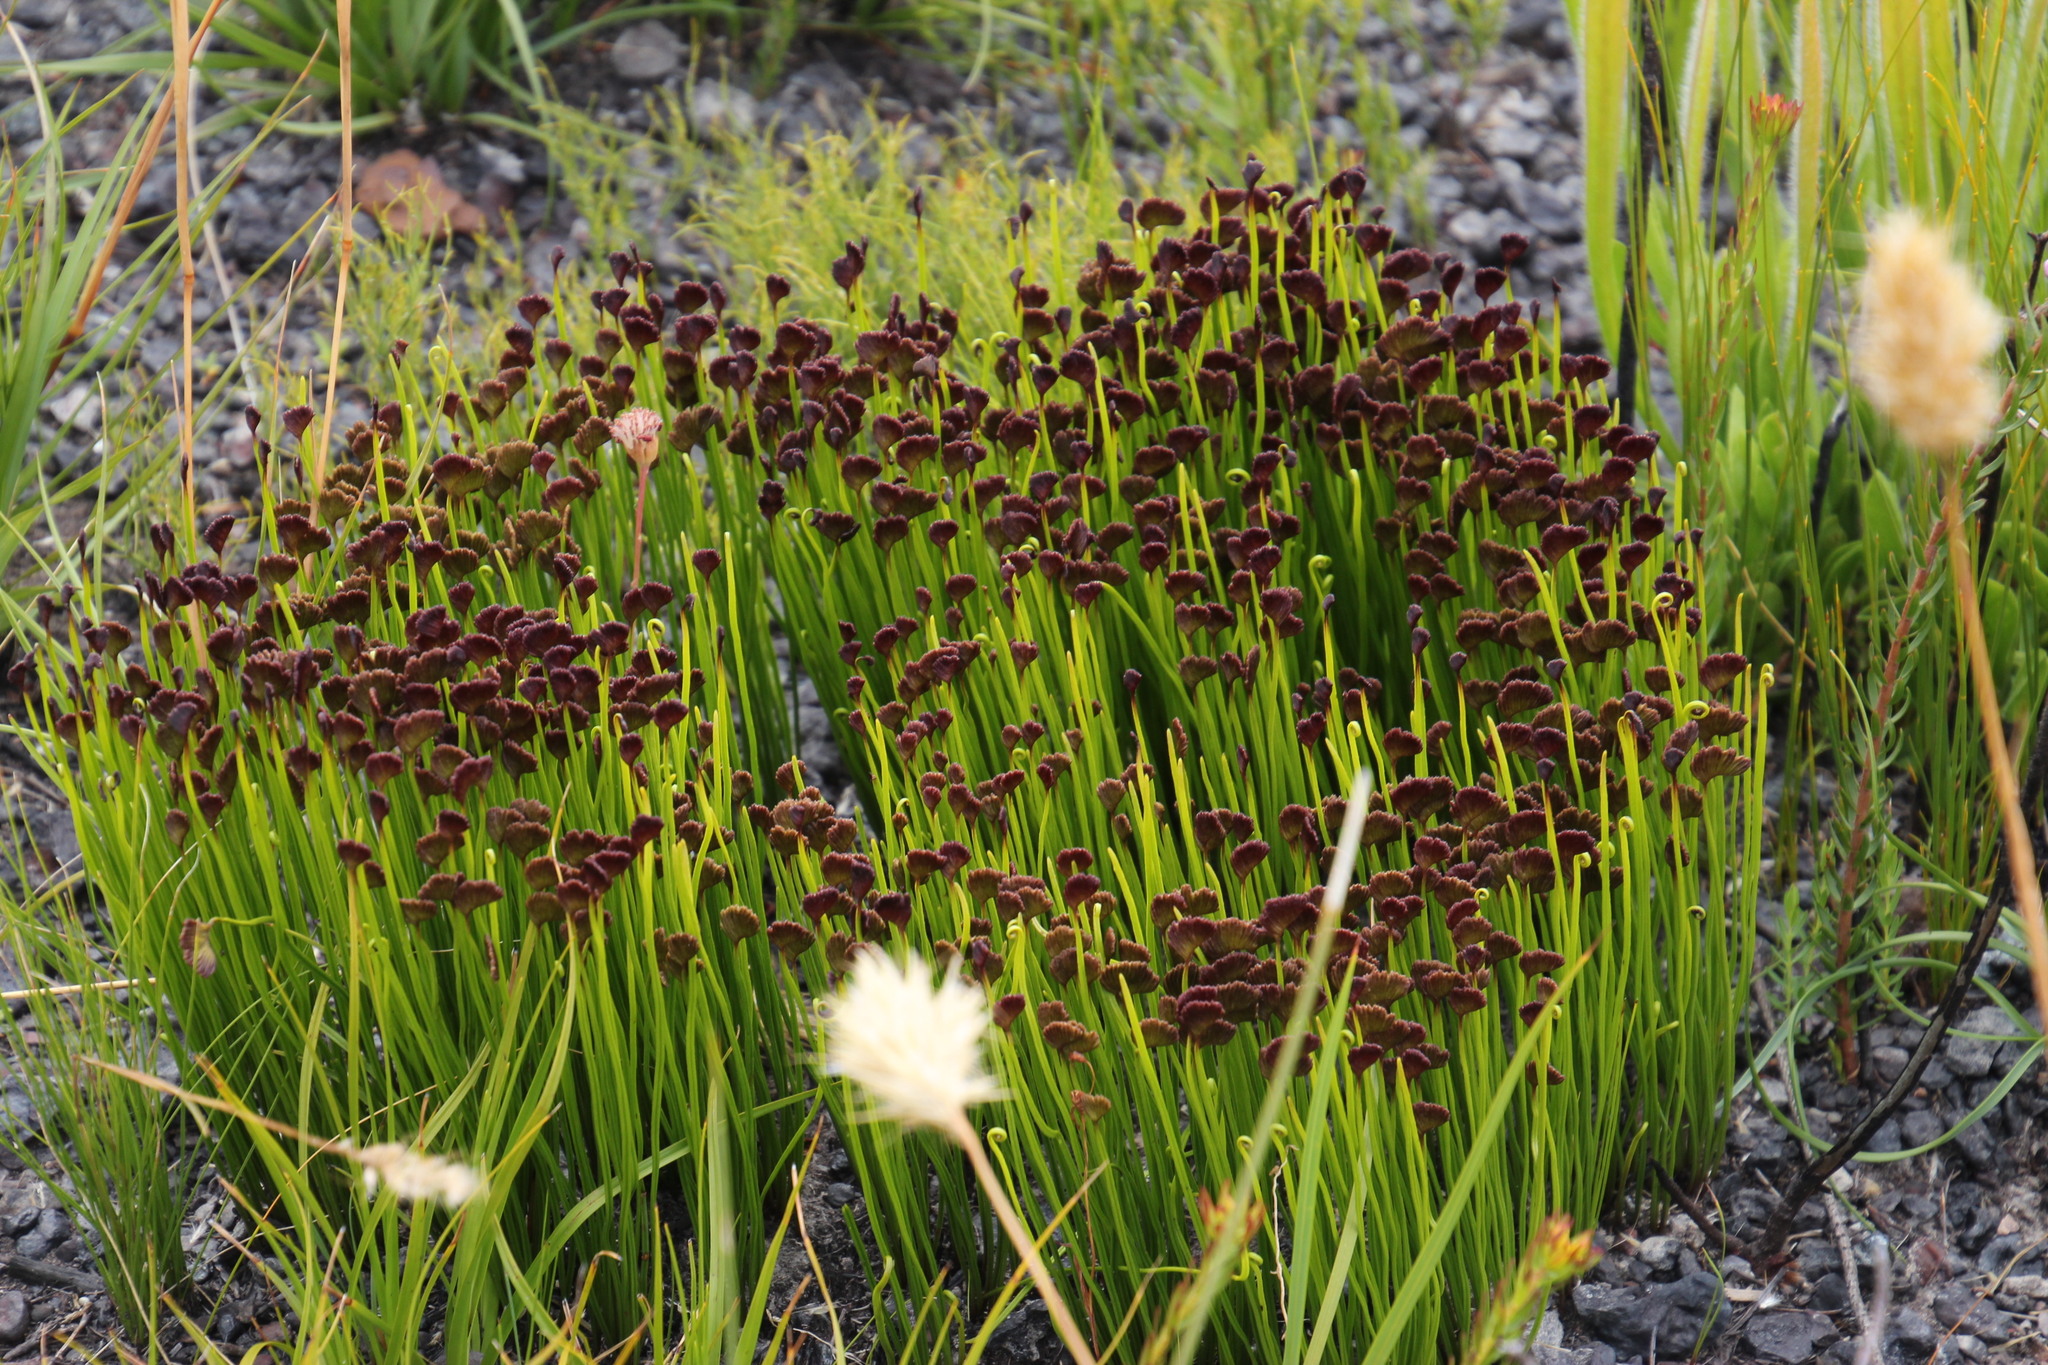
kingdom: Plantae
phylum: Tracheophyta
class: Polypodiopsida
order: Schizaeales
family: Schizaeaceae
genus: Schizaea
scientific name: Schizaea pectinata
